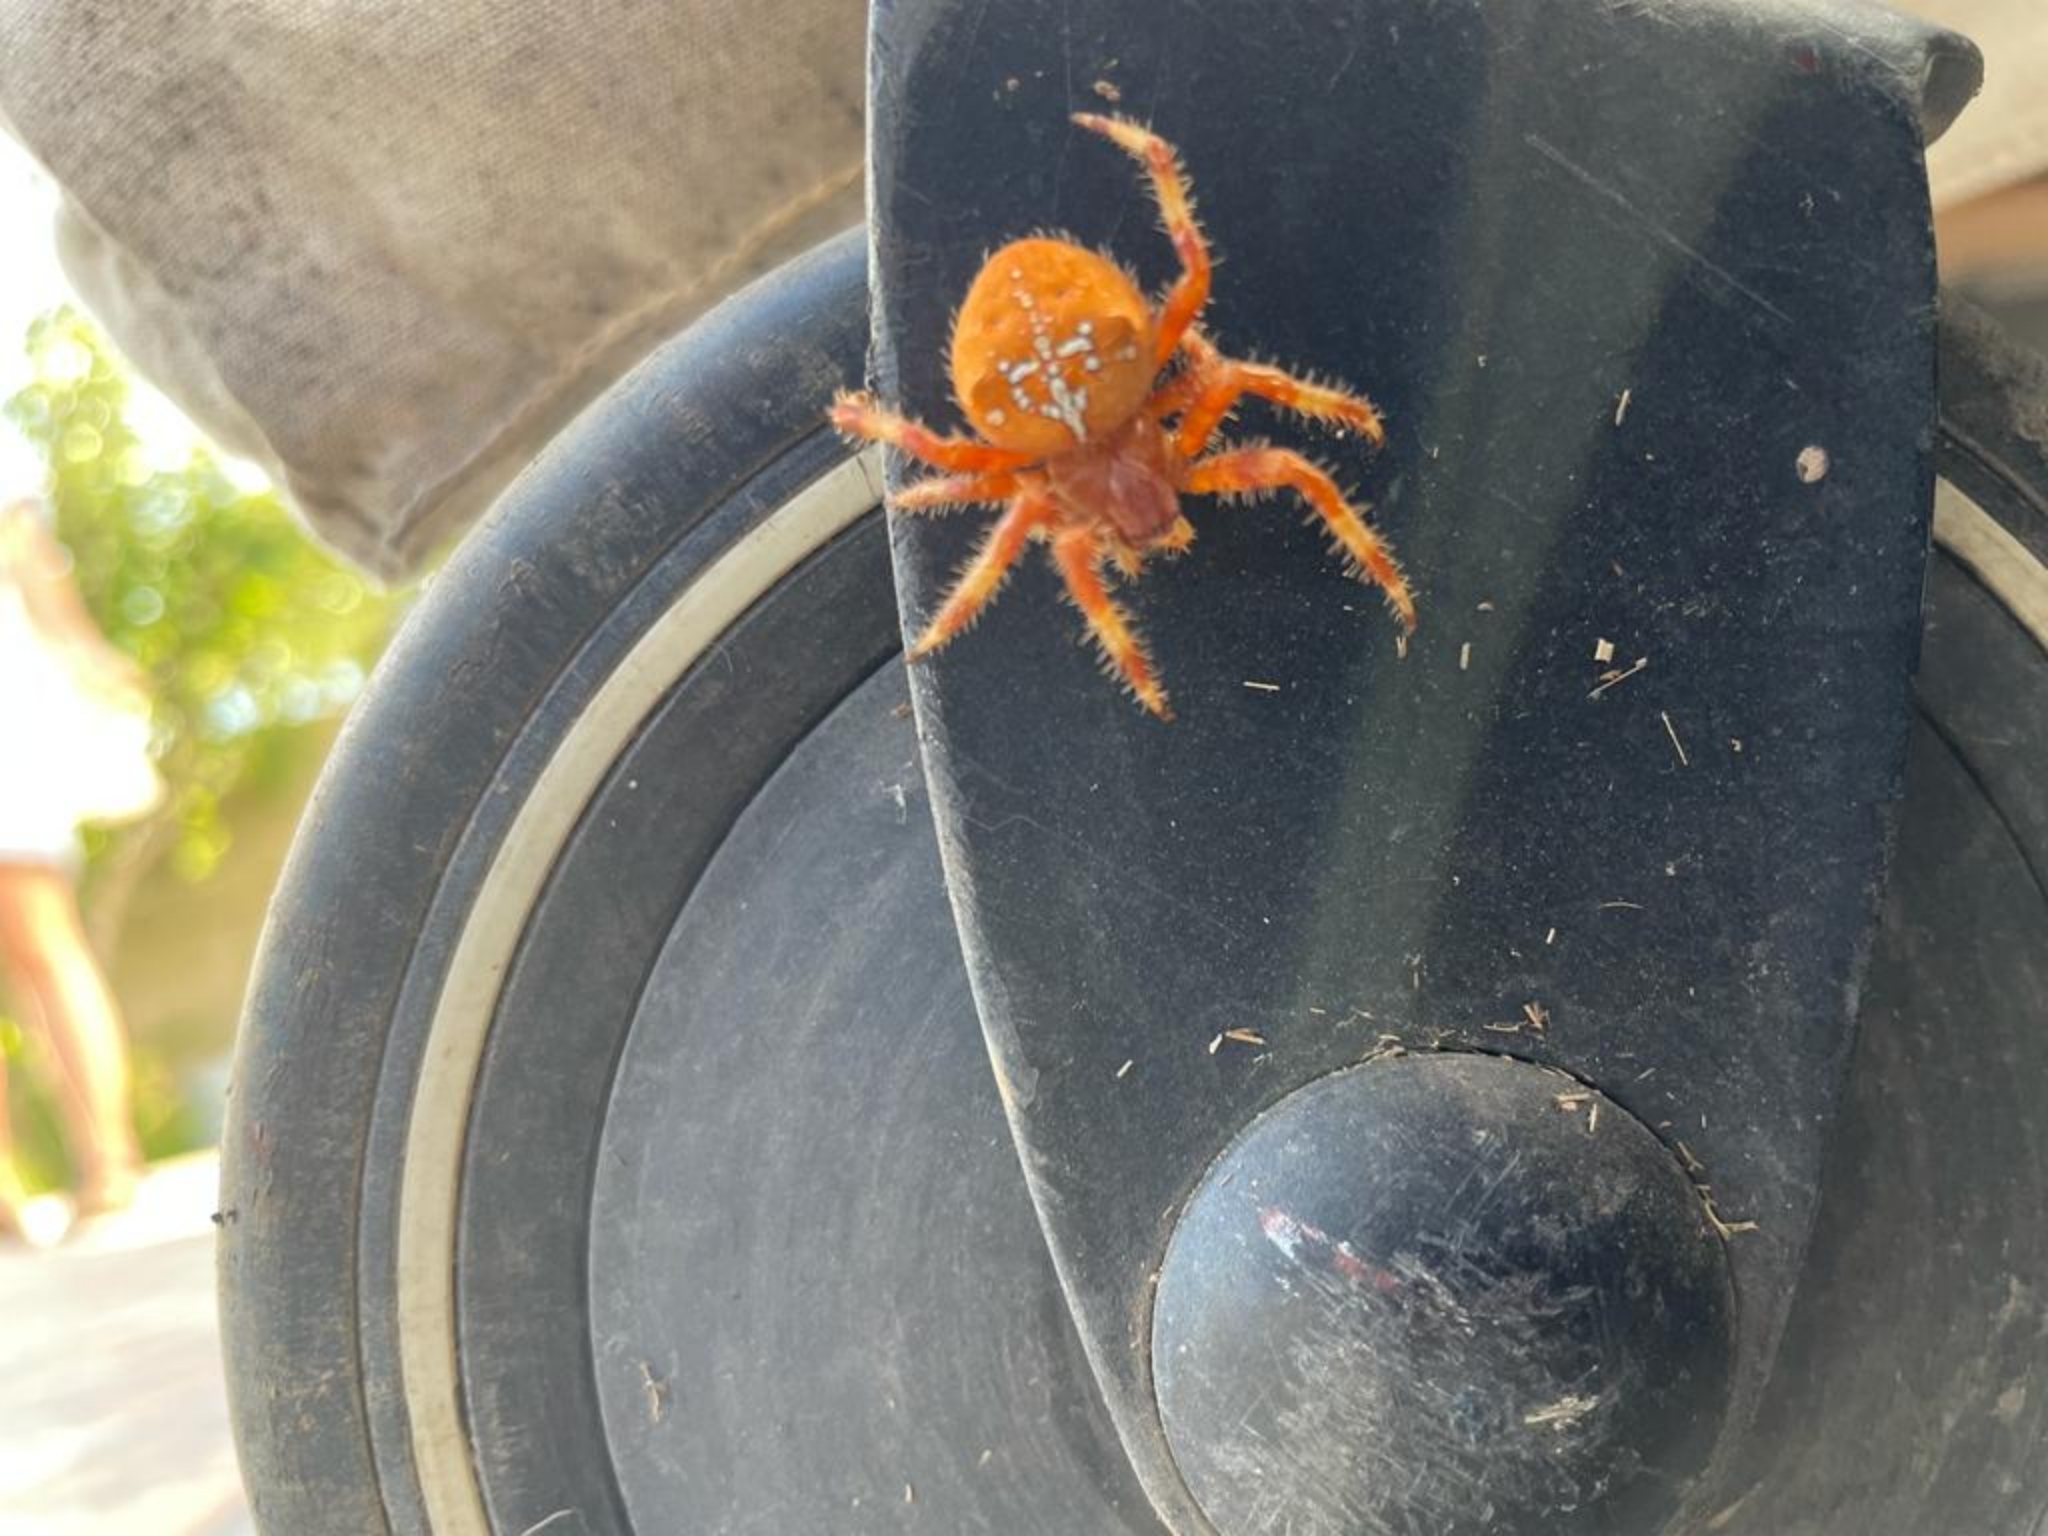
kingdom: Animalia
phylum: Arthropoda
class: Arachnida
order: Araneae
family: Araneidae
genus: Araneus
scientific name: Araneus pallidus
